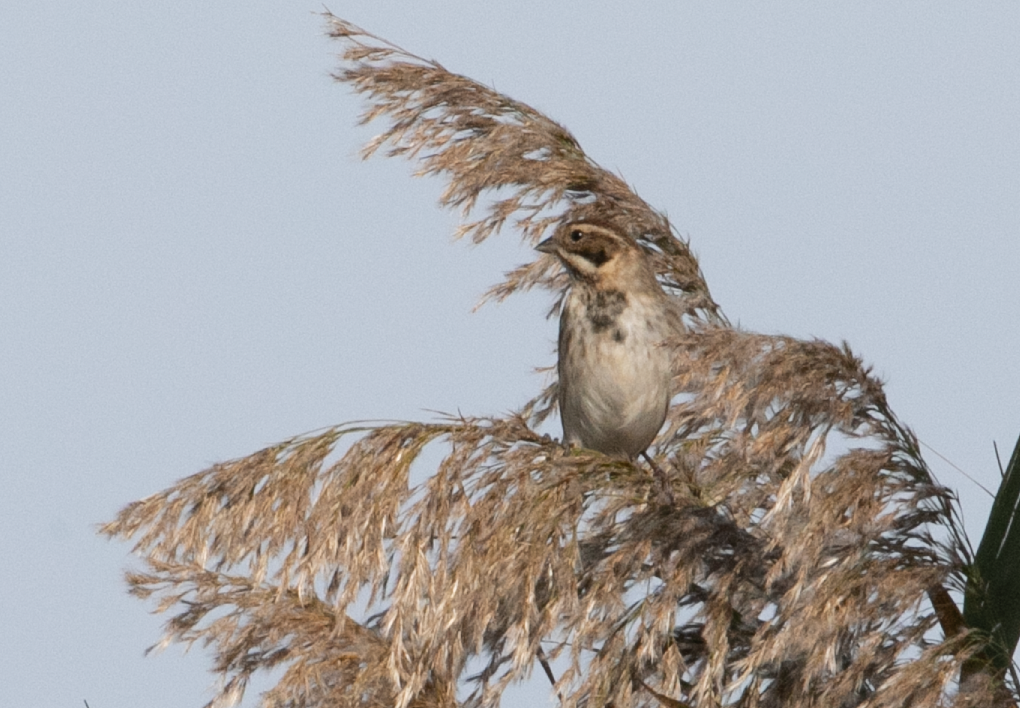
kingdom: Animalia
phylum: Chordata
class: Aves
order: Passeriformes
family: Emberizidae
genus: Emberiza
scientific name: Emberiza schoeniclus
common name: Reed bunting
